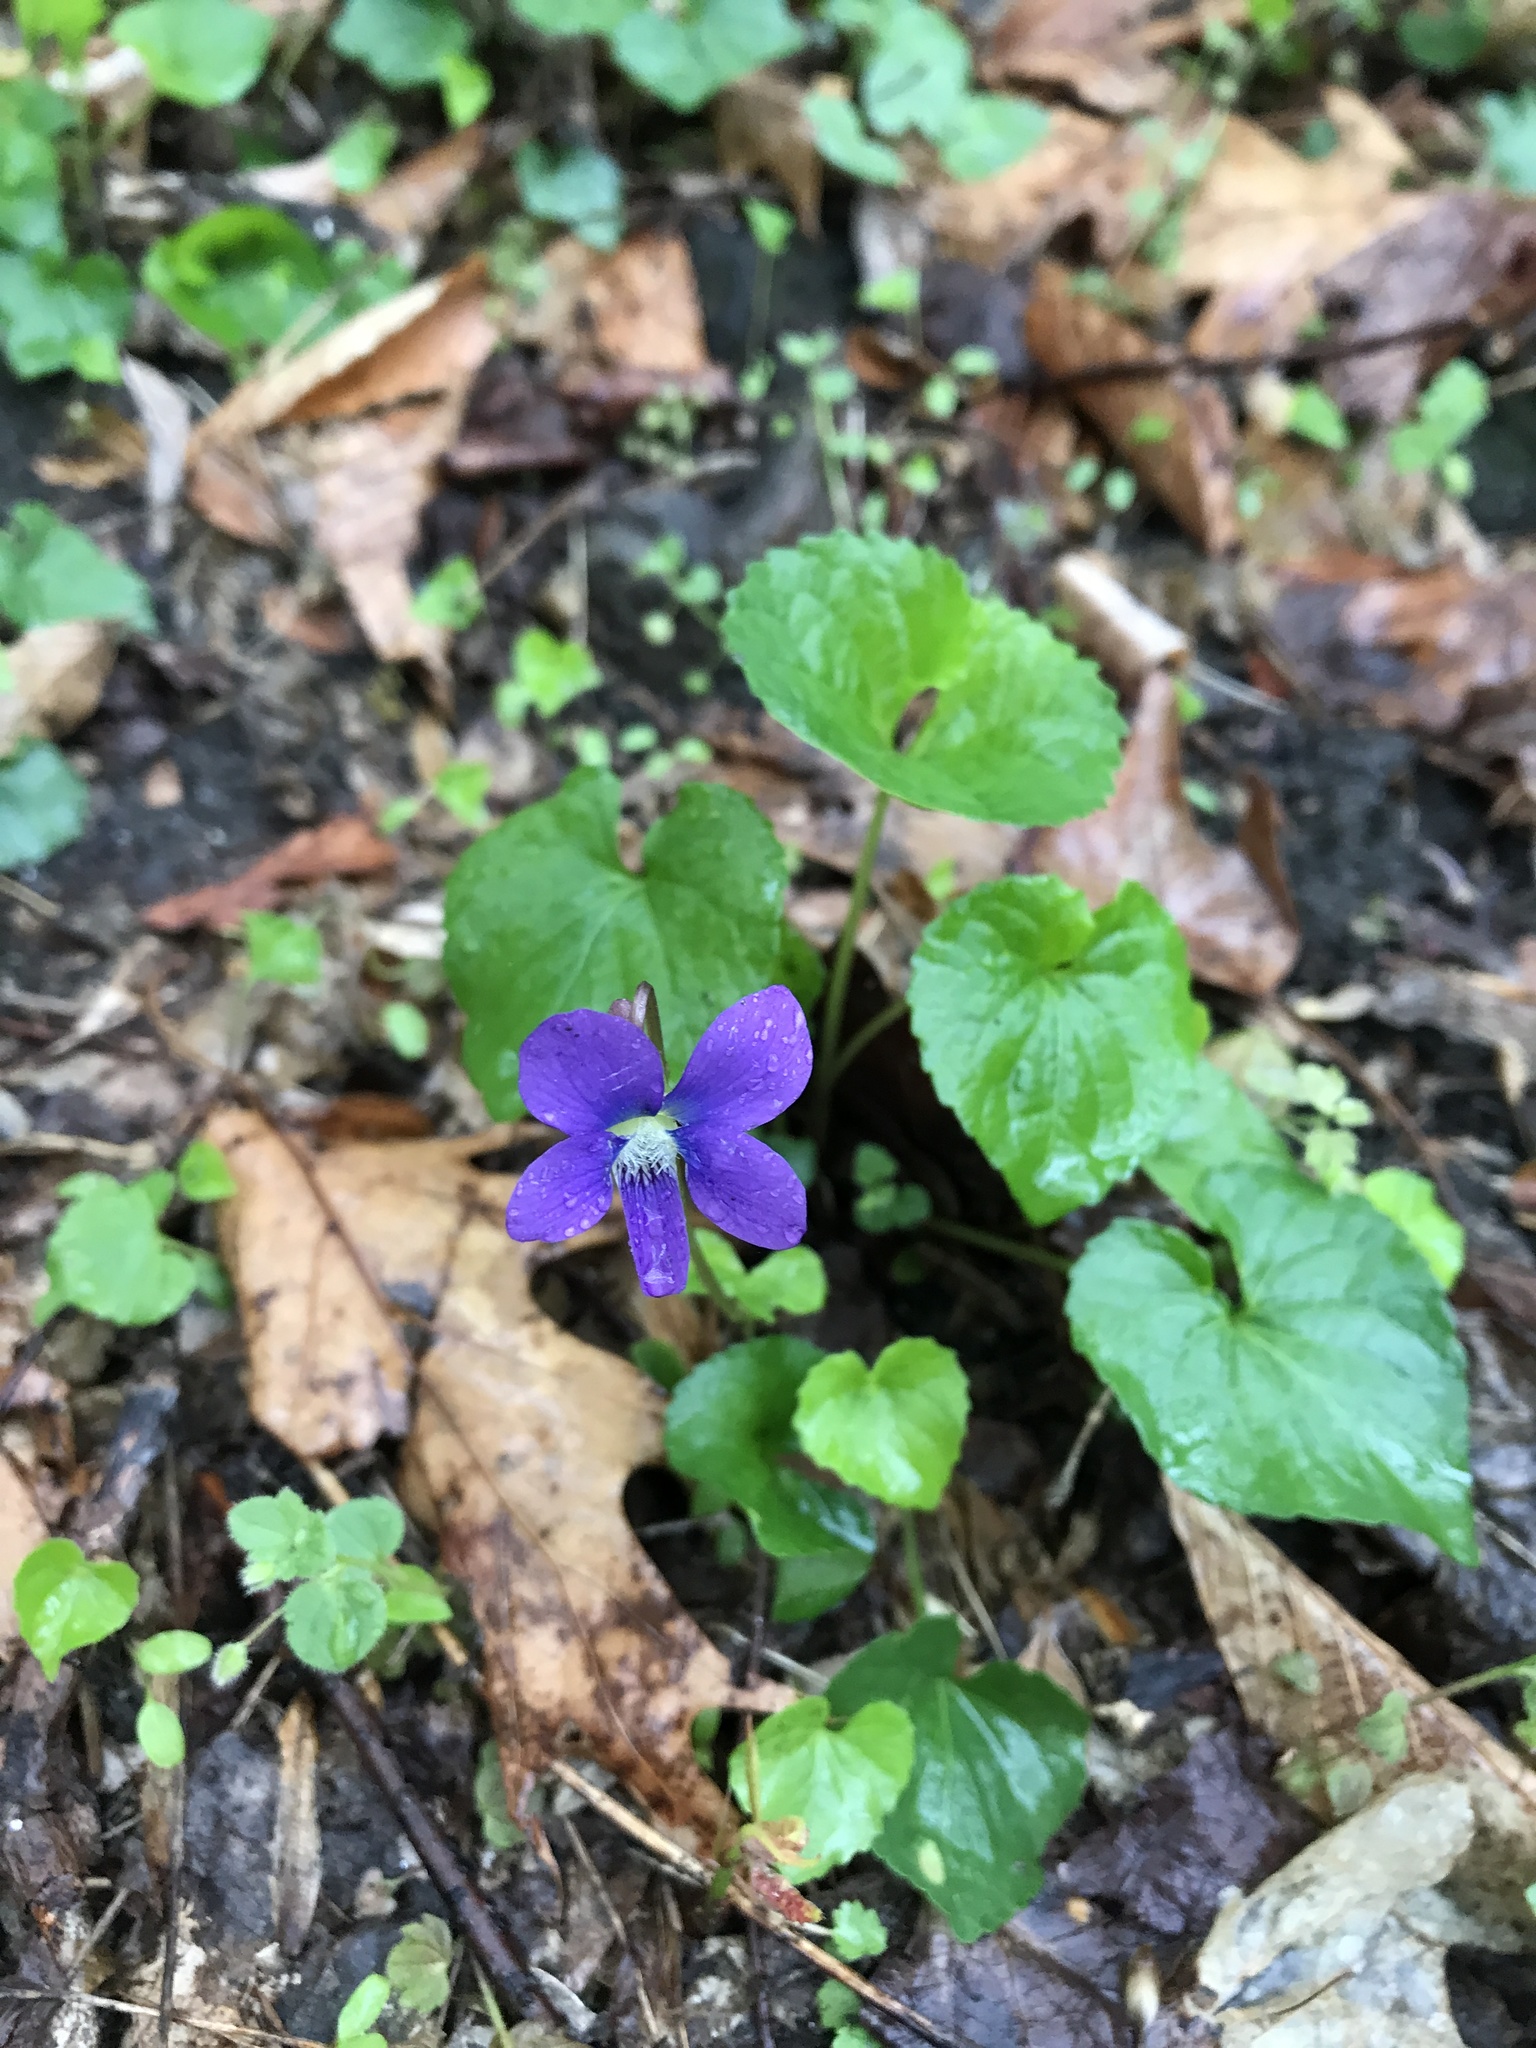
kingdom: Plantae
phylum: Tracheophyta
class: Magnoliopsida
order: Malpighiales
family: Violaceae
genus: Viola
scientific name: Viola sororia
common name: Dooryard violet
